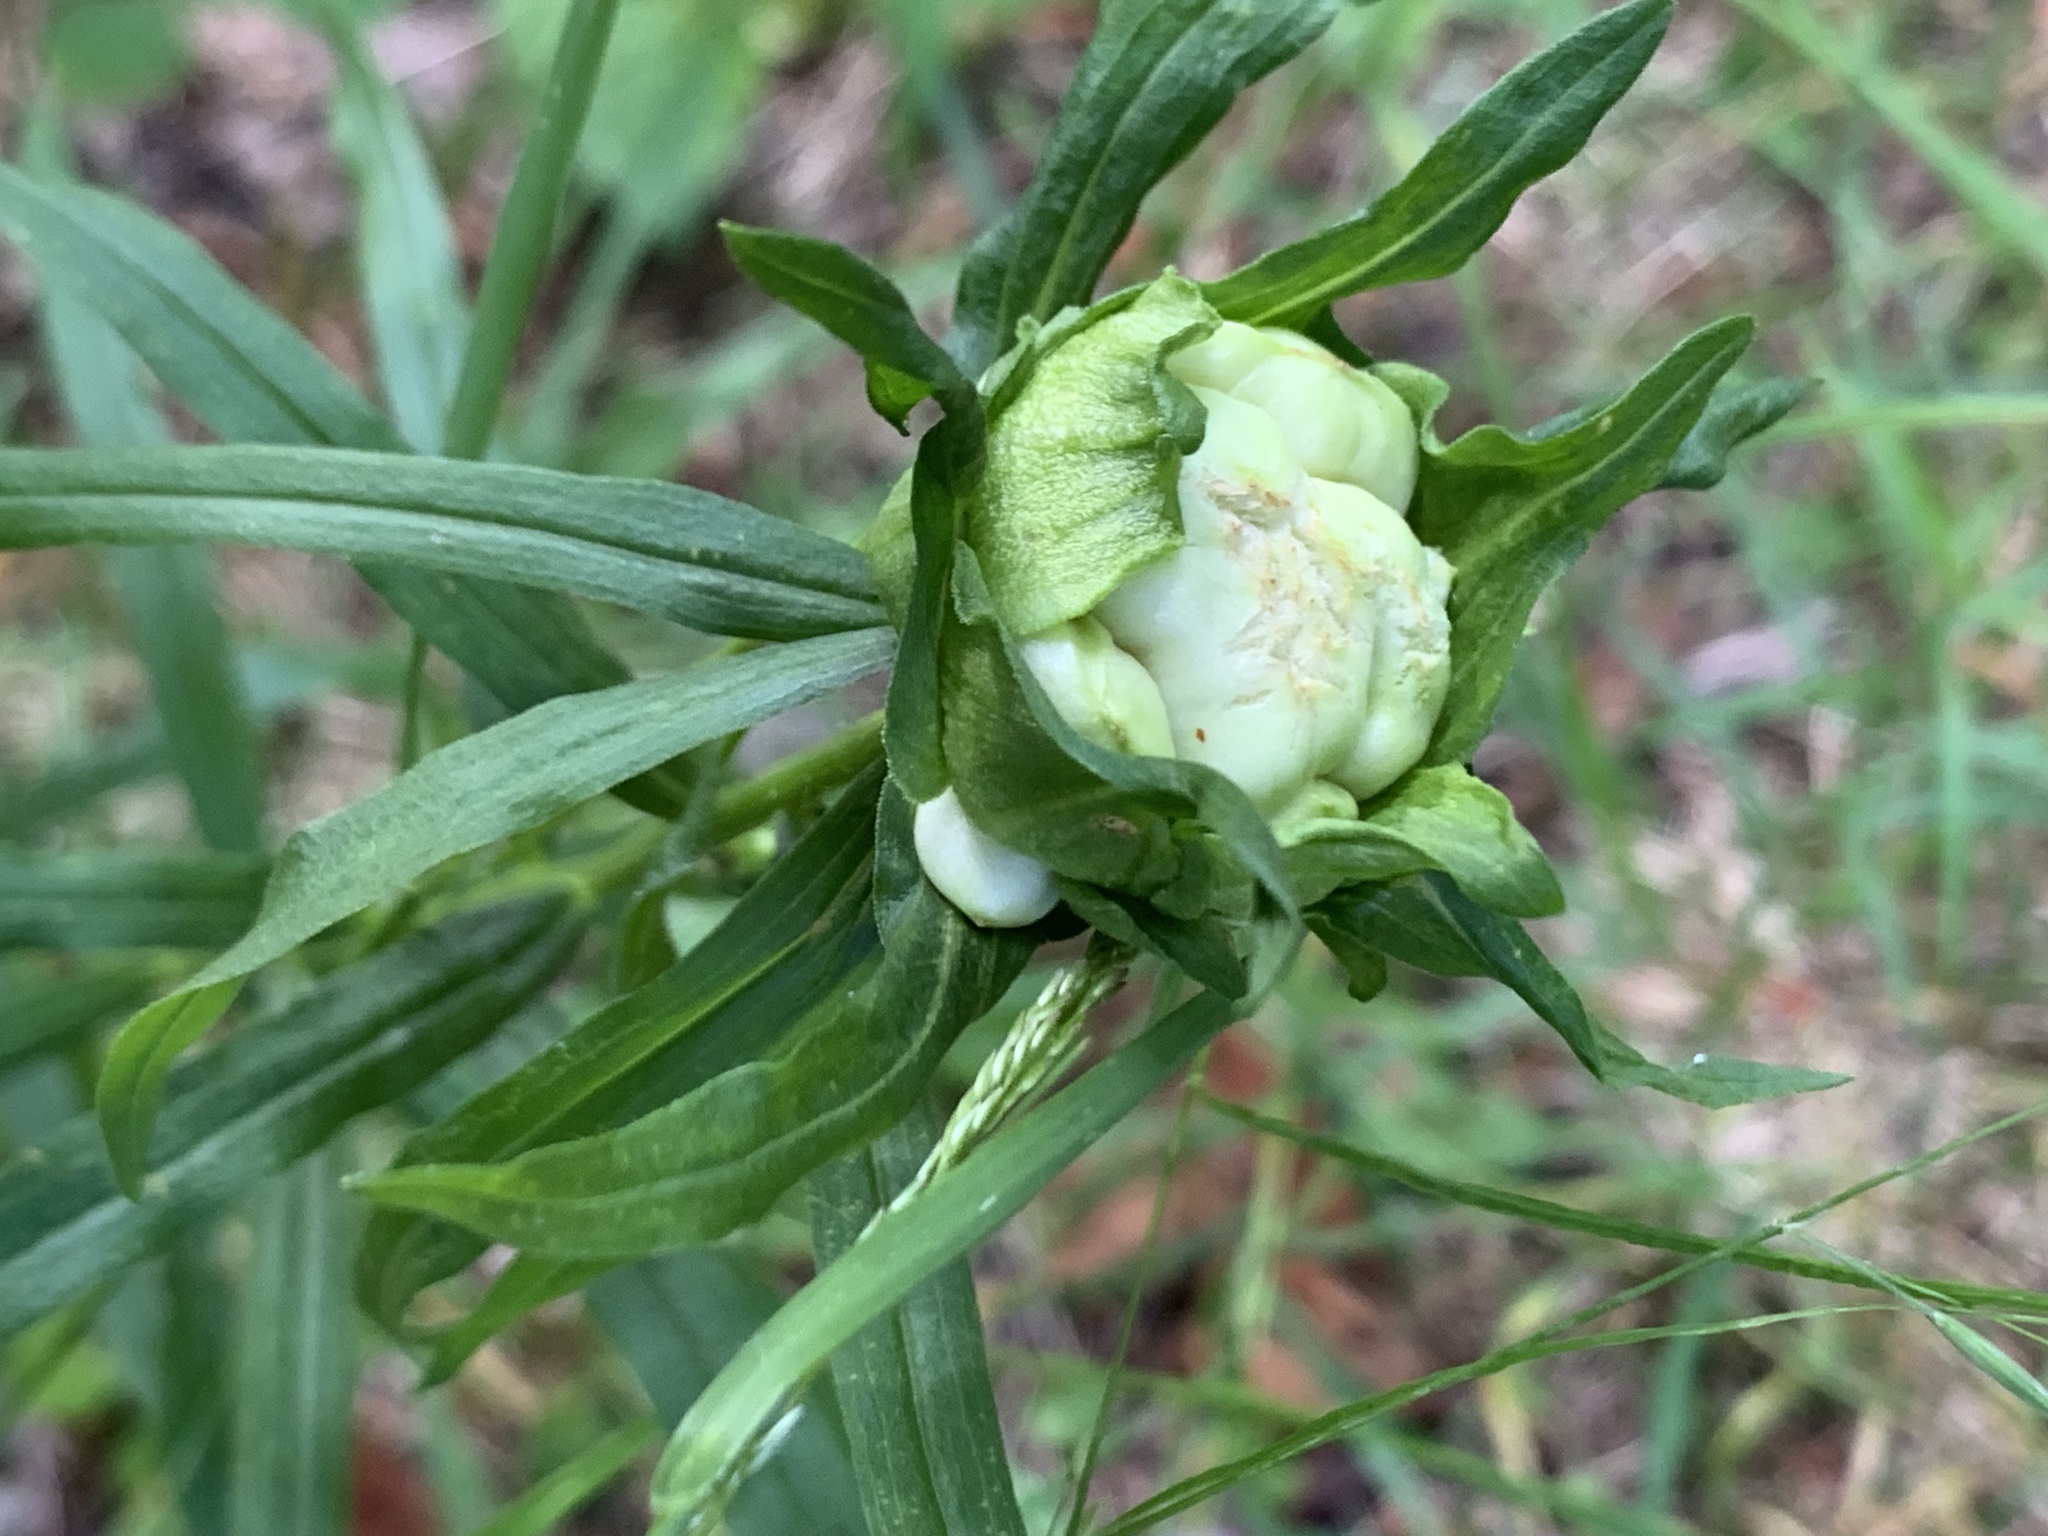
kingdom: Animalia
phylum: Arthropoda
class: Insecta
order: Diptera
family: Cecidomyiidae
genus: Rhopalomyia
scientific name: Rhopalomyia lobata
